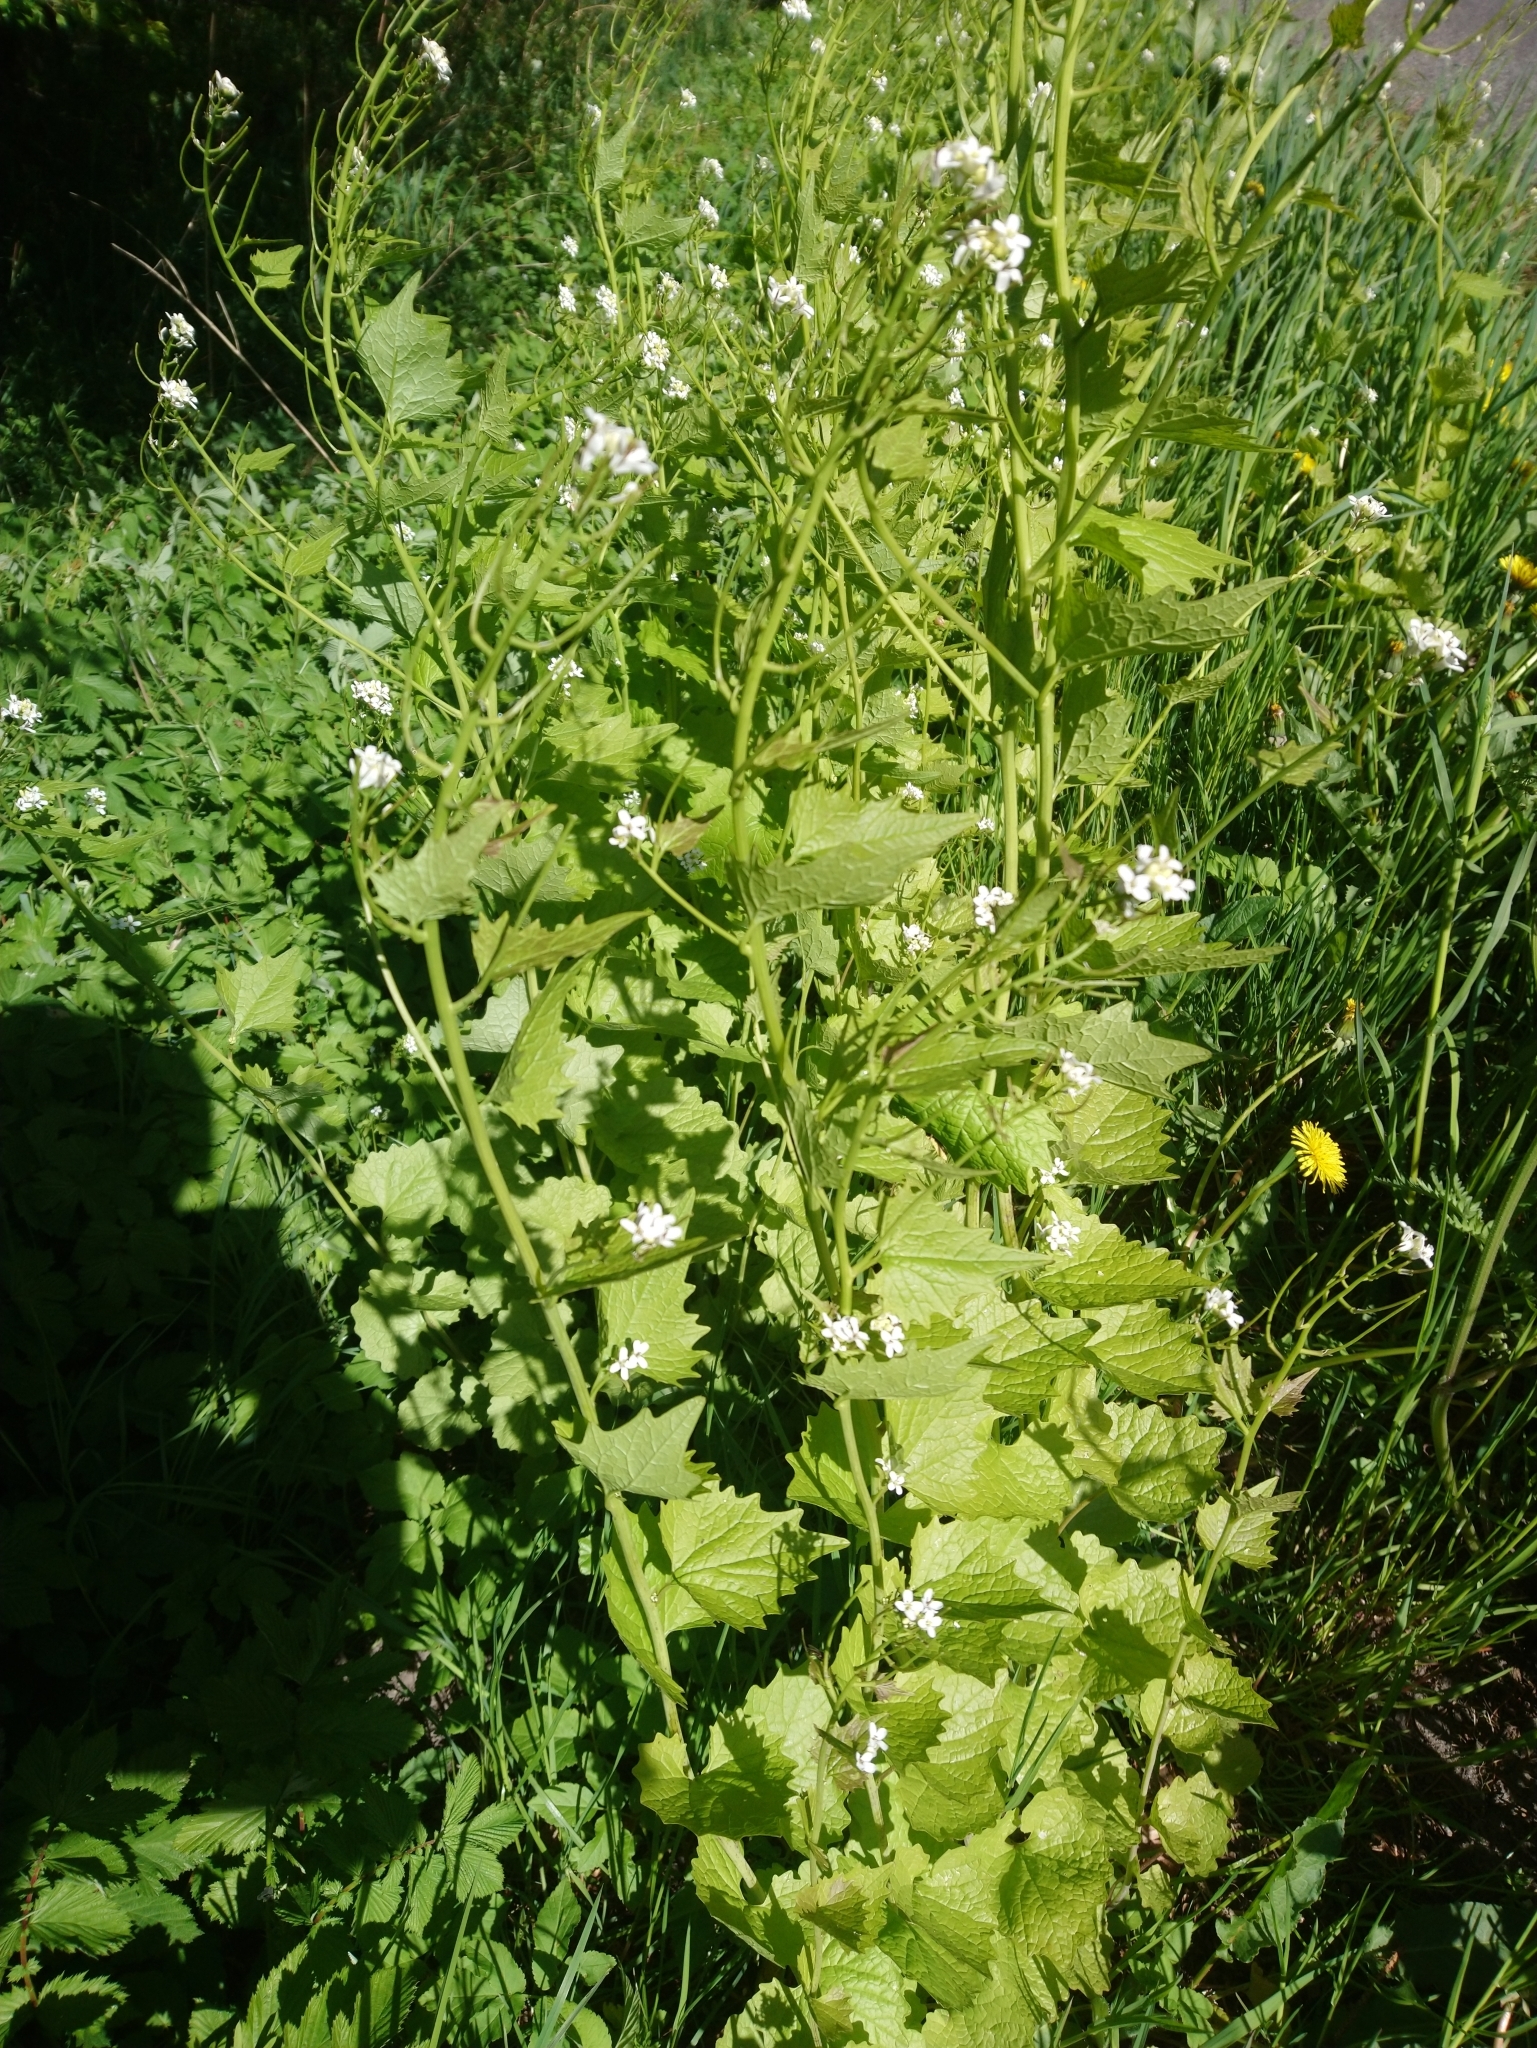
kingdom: Plantae
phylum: Tracheophyta
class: Magnoliopsida
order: Brassicales
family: Brassicaceae
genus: Alliaria
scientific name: Alliaria petiolata
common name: Garlic mustard
